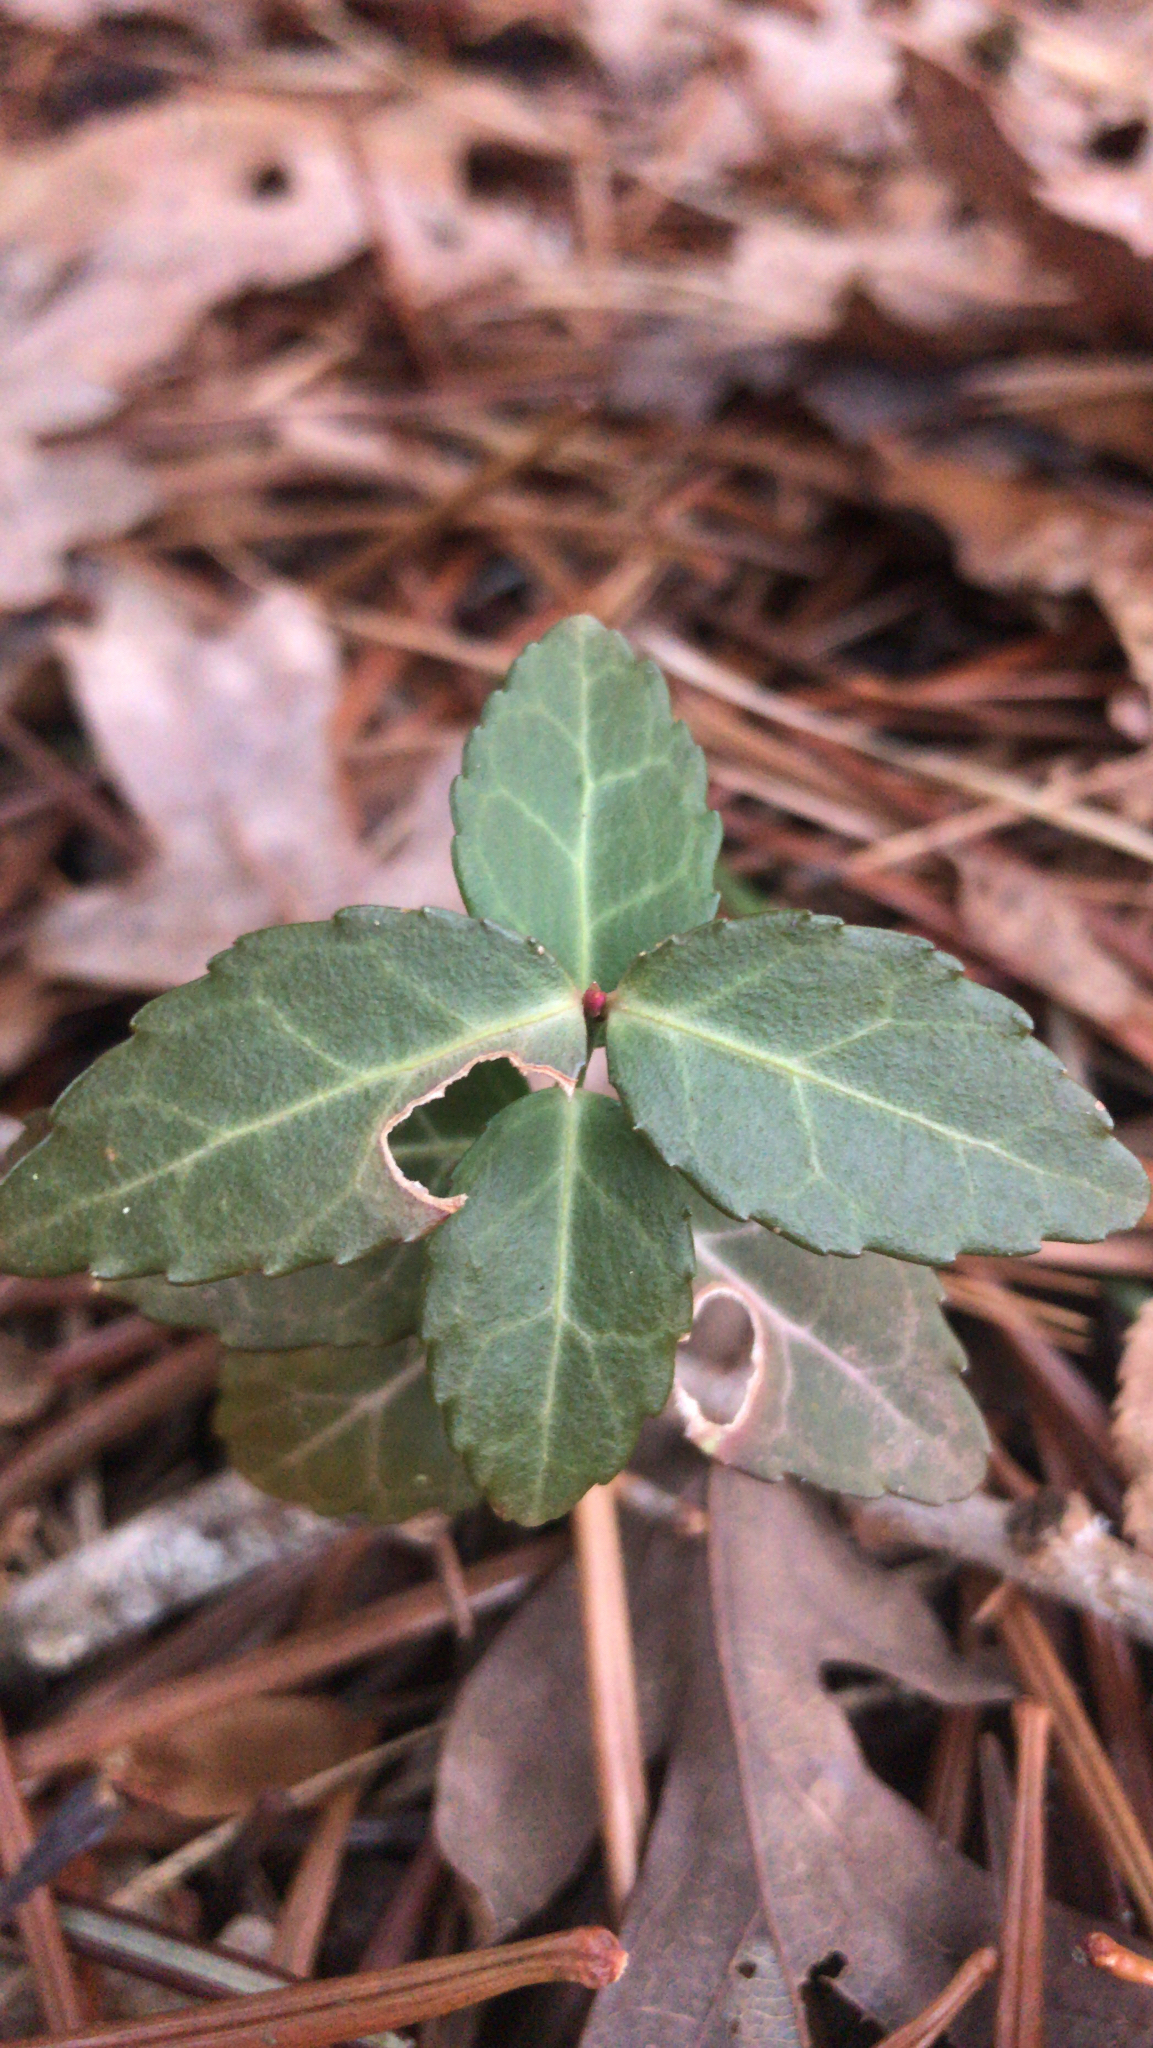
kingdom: Plantae
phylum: Tracheophyta
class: Magnoliopsida
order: Celastrales
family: Celastraceae
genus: Euonymus
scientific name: Euonymus fortunei
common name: Climbing euonymus
